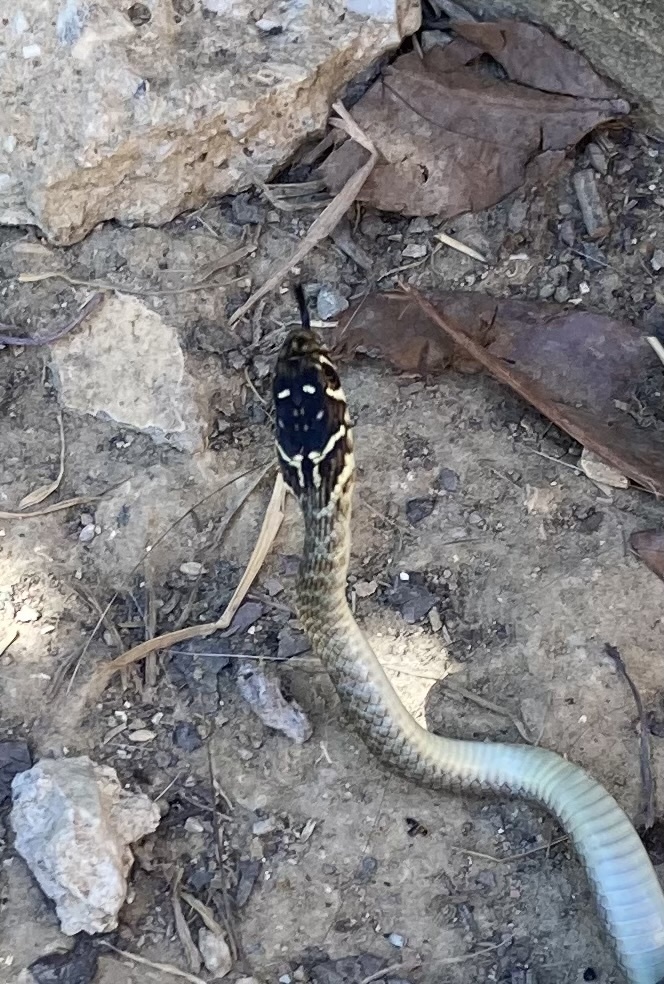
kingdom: Animalia
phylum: Chordata
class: Squamata
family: Colubridae
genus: Hierophis
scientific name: Hierophis viridiflavus
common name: Green whip snake
